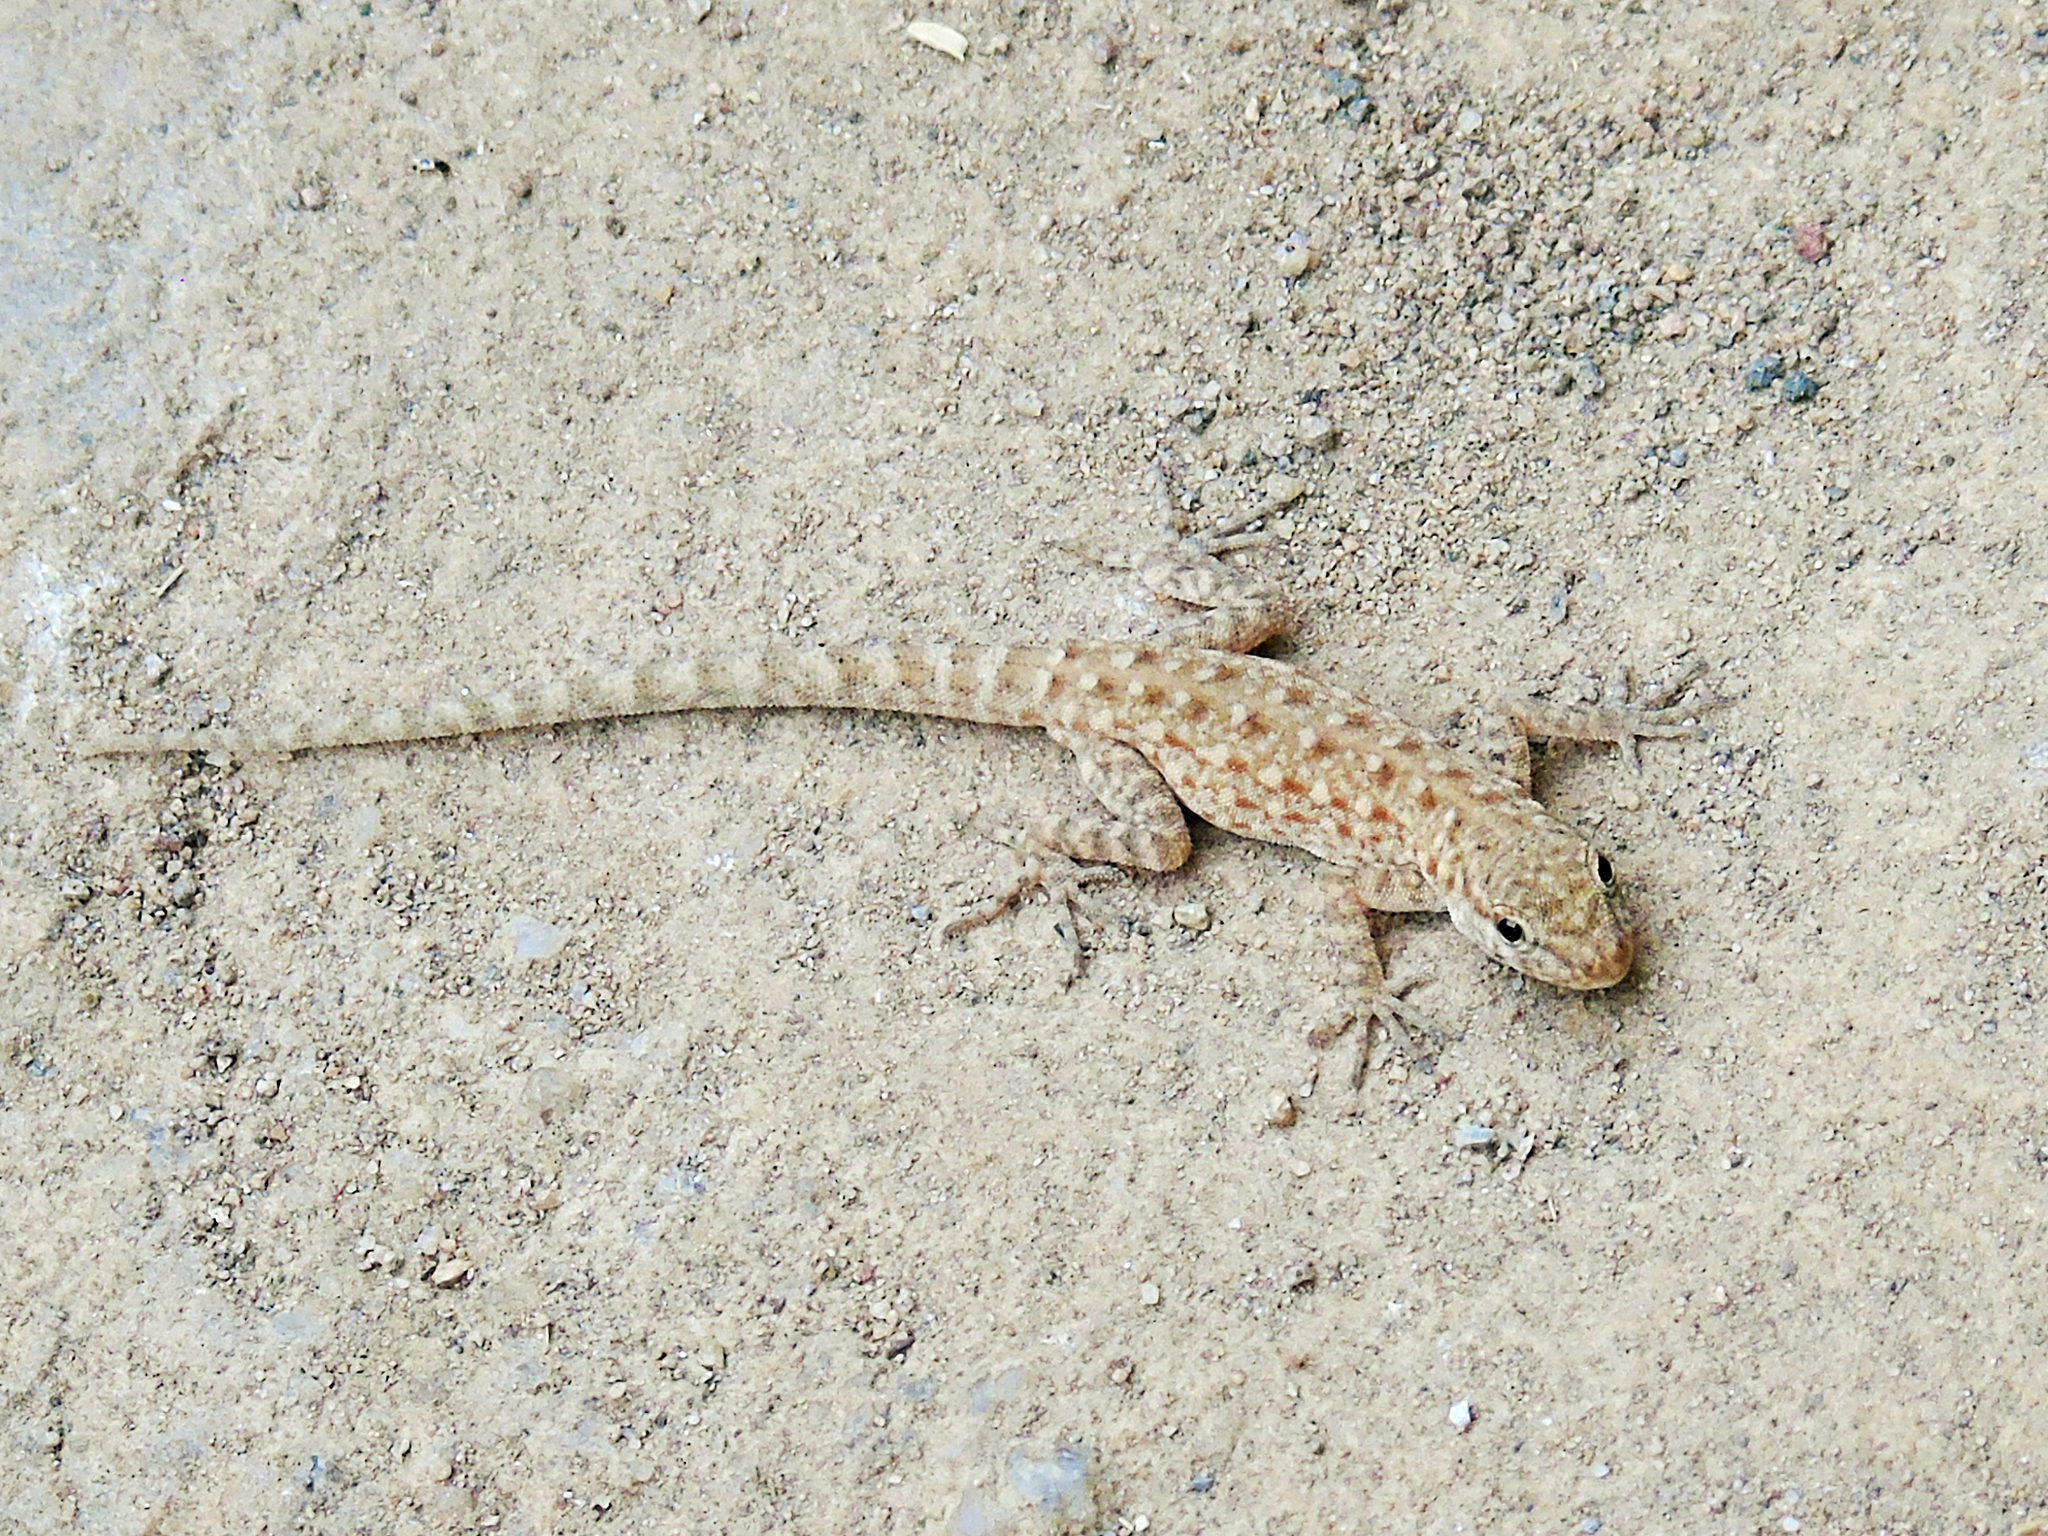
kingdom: Animalia
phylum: Chordata
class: Squamata
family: Sphaerodactylidae
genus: Pristurus
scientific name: Pristurus rupestris
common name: Blanford’s semaphore gecko
